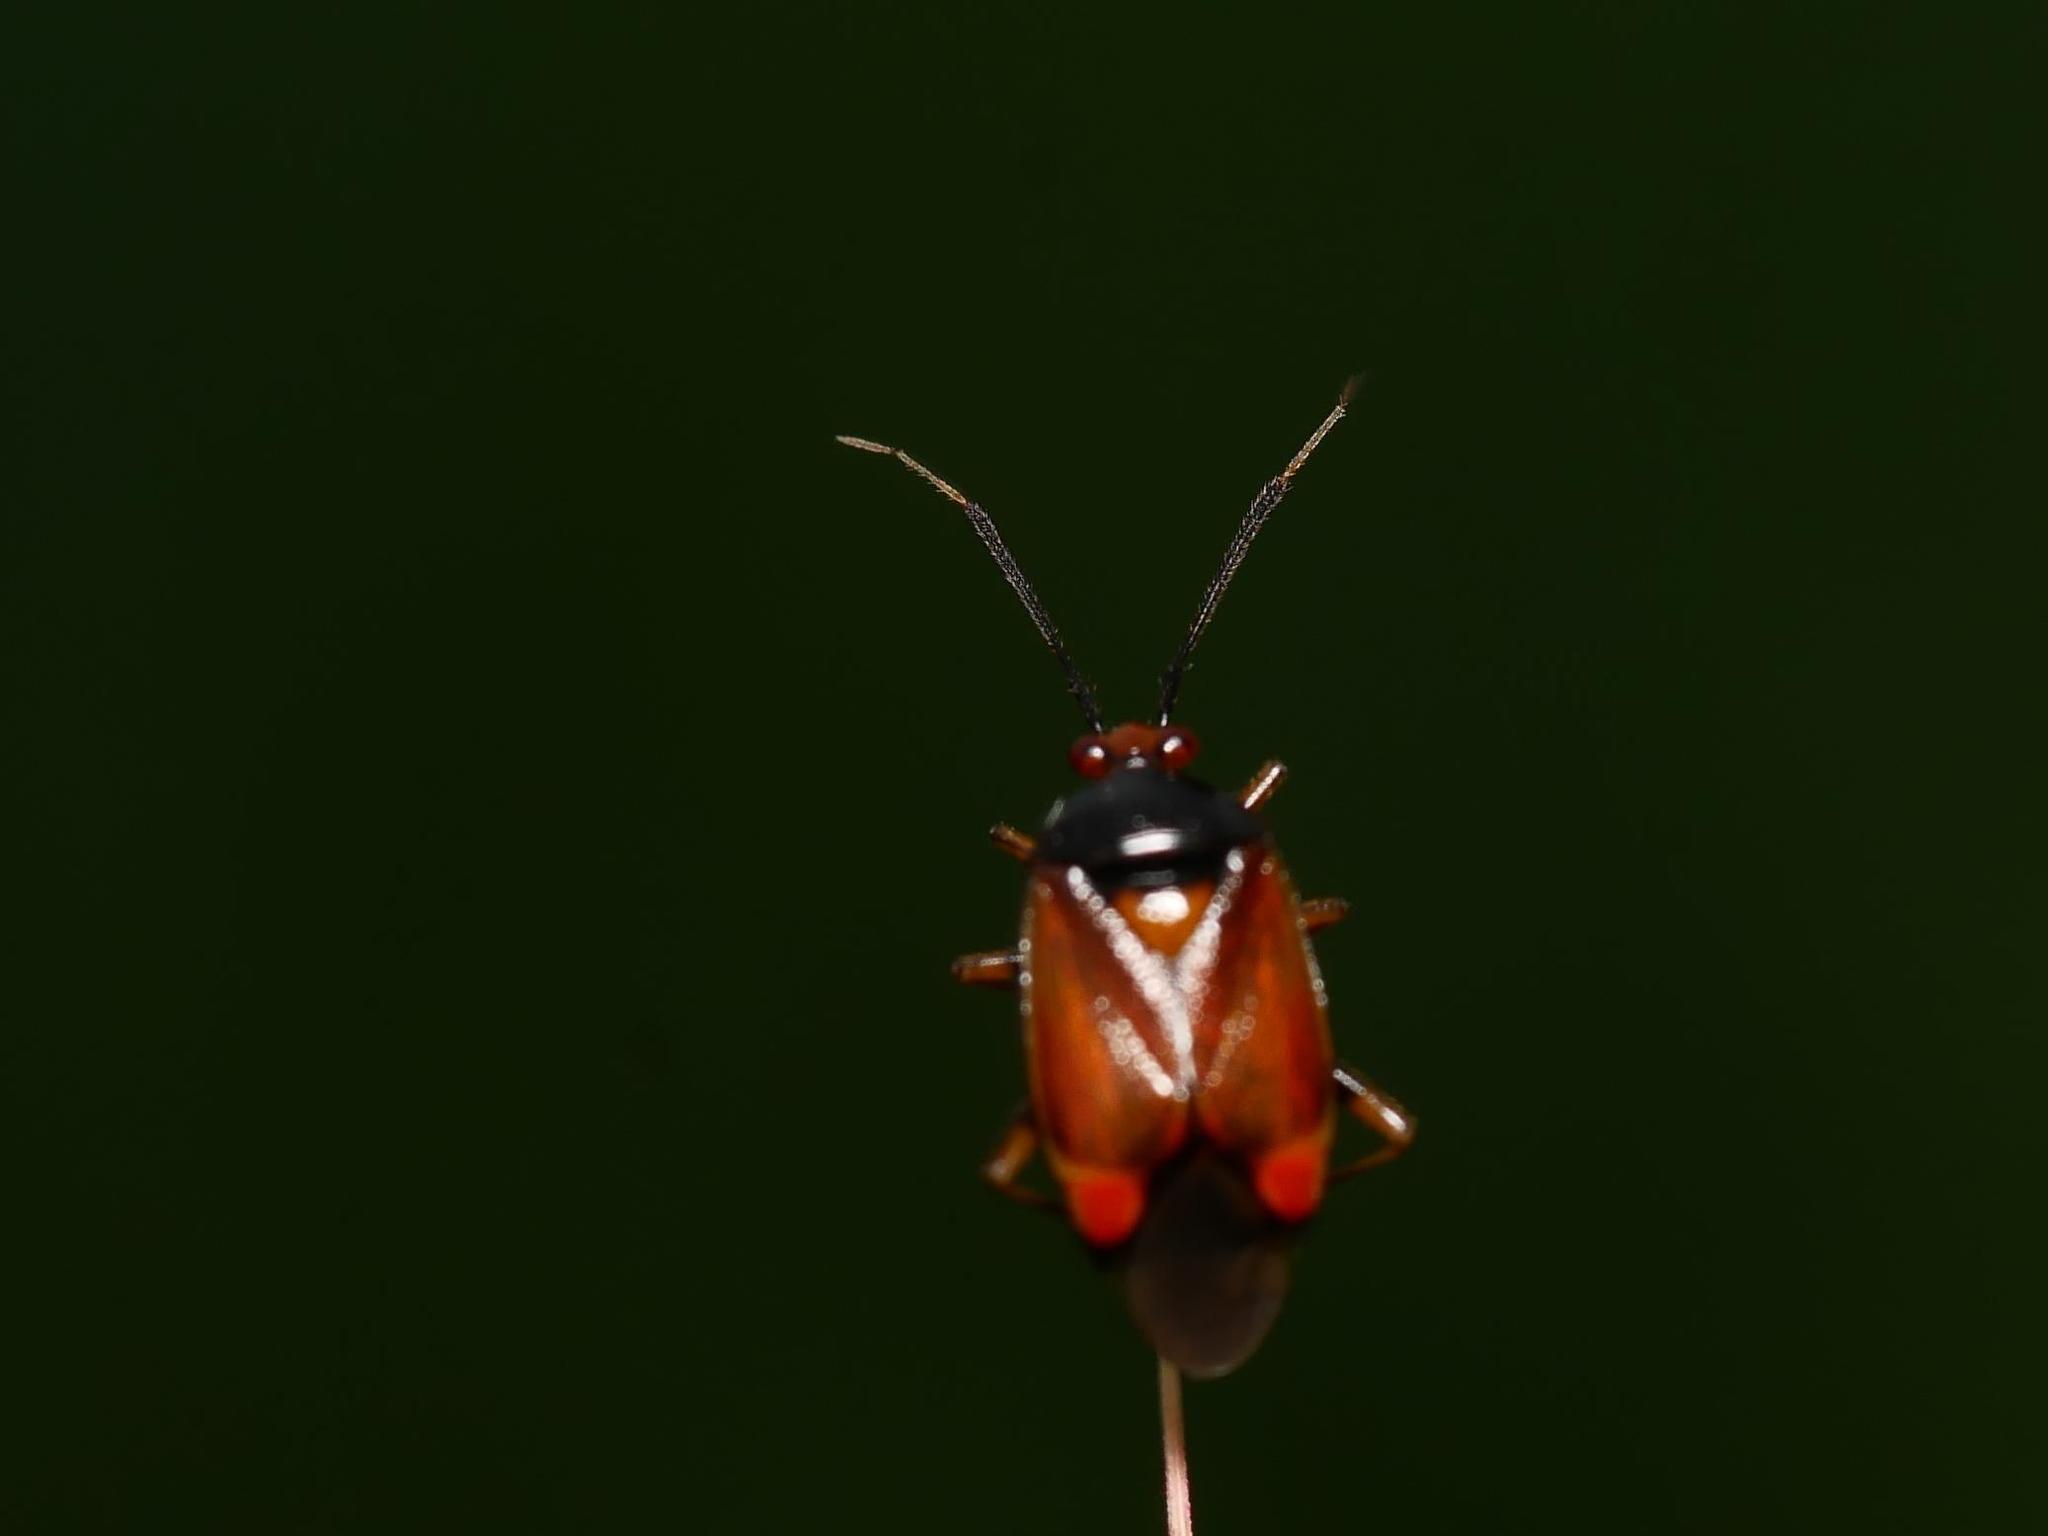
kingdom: Animalia
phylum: Arthropoda
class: Insecta
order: Hemiptera
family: Miridae
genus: Deraeocoris
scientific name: Deraeocoris ruber
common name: Plant bug
